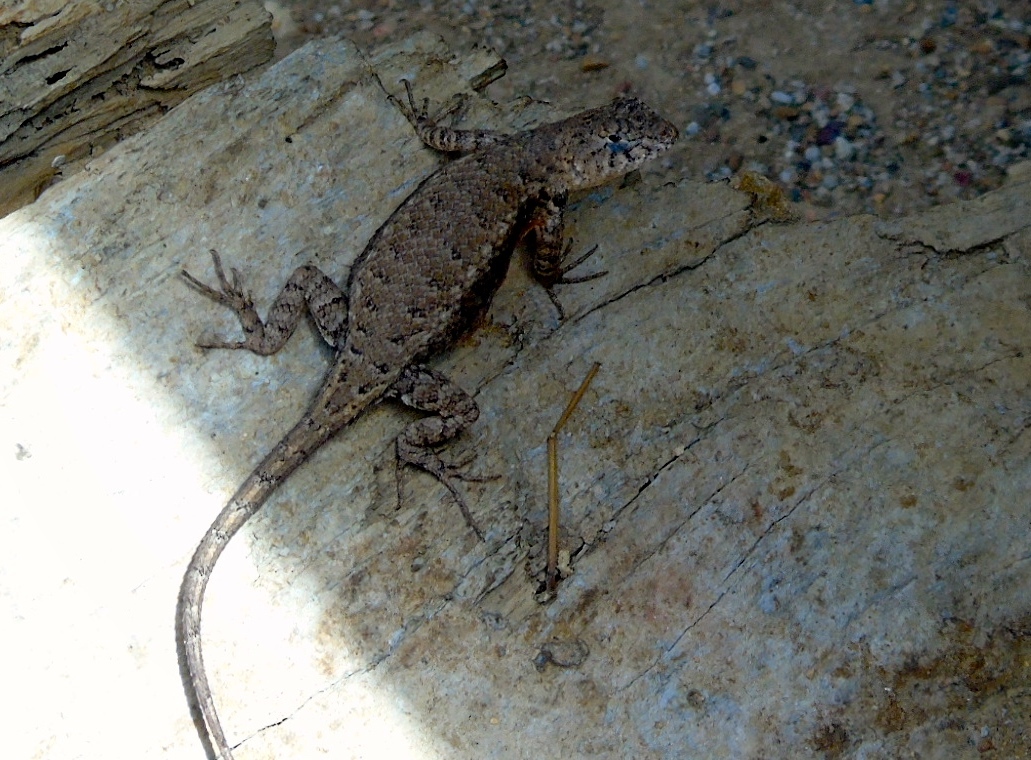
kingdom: Animalia
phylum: Chordata
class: Squamata
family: Phrynosomatidae
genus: Sceloporus
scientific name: Sceloporus nelsoni
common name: Nelson's spiny lizard
